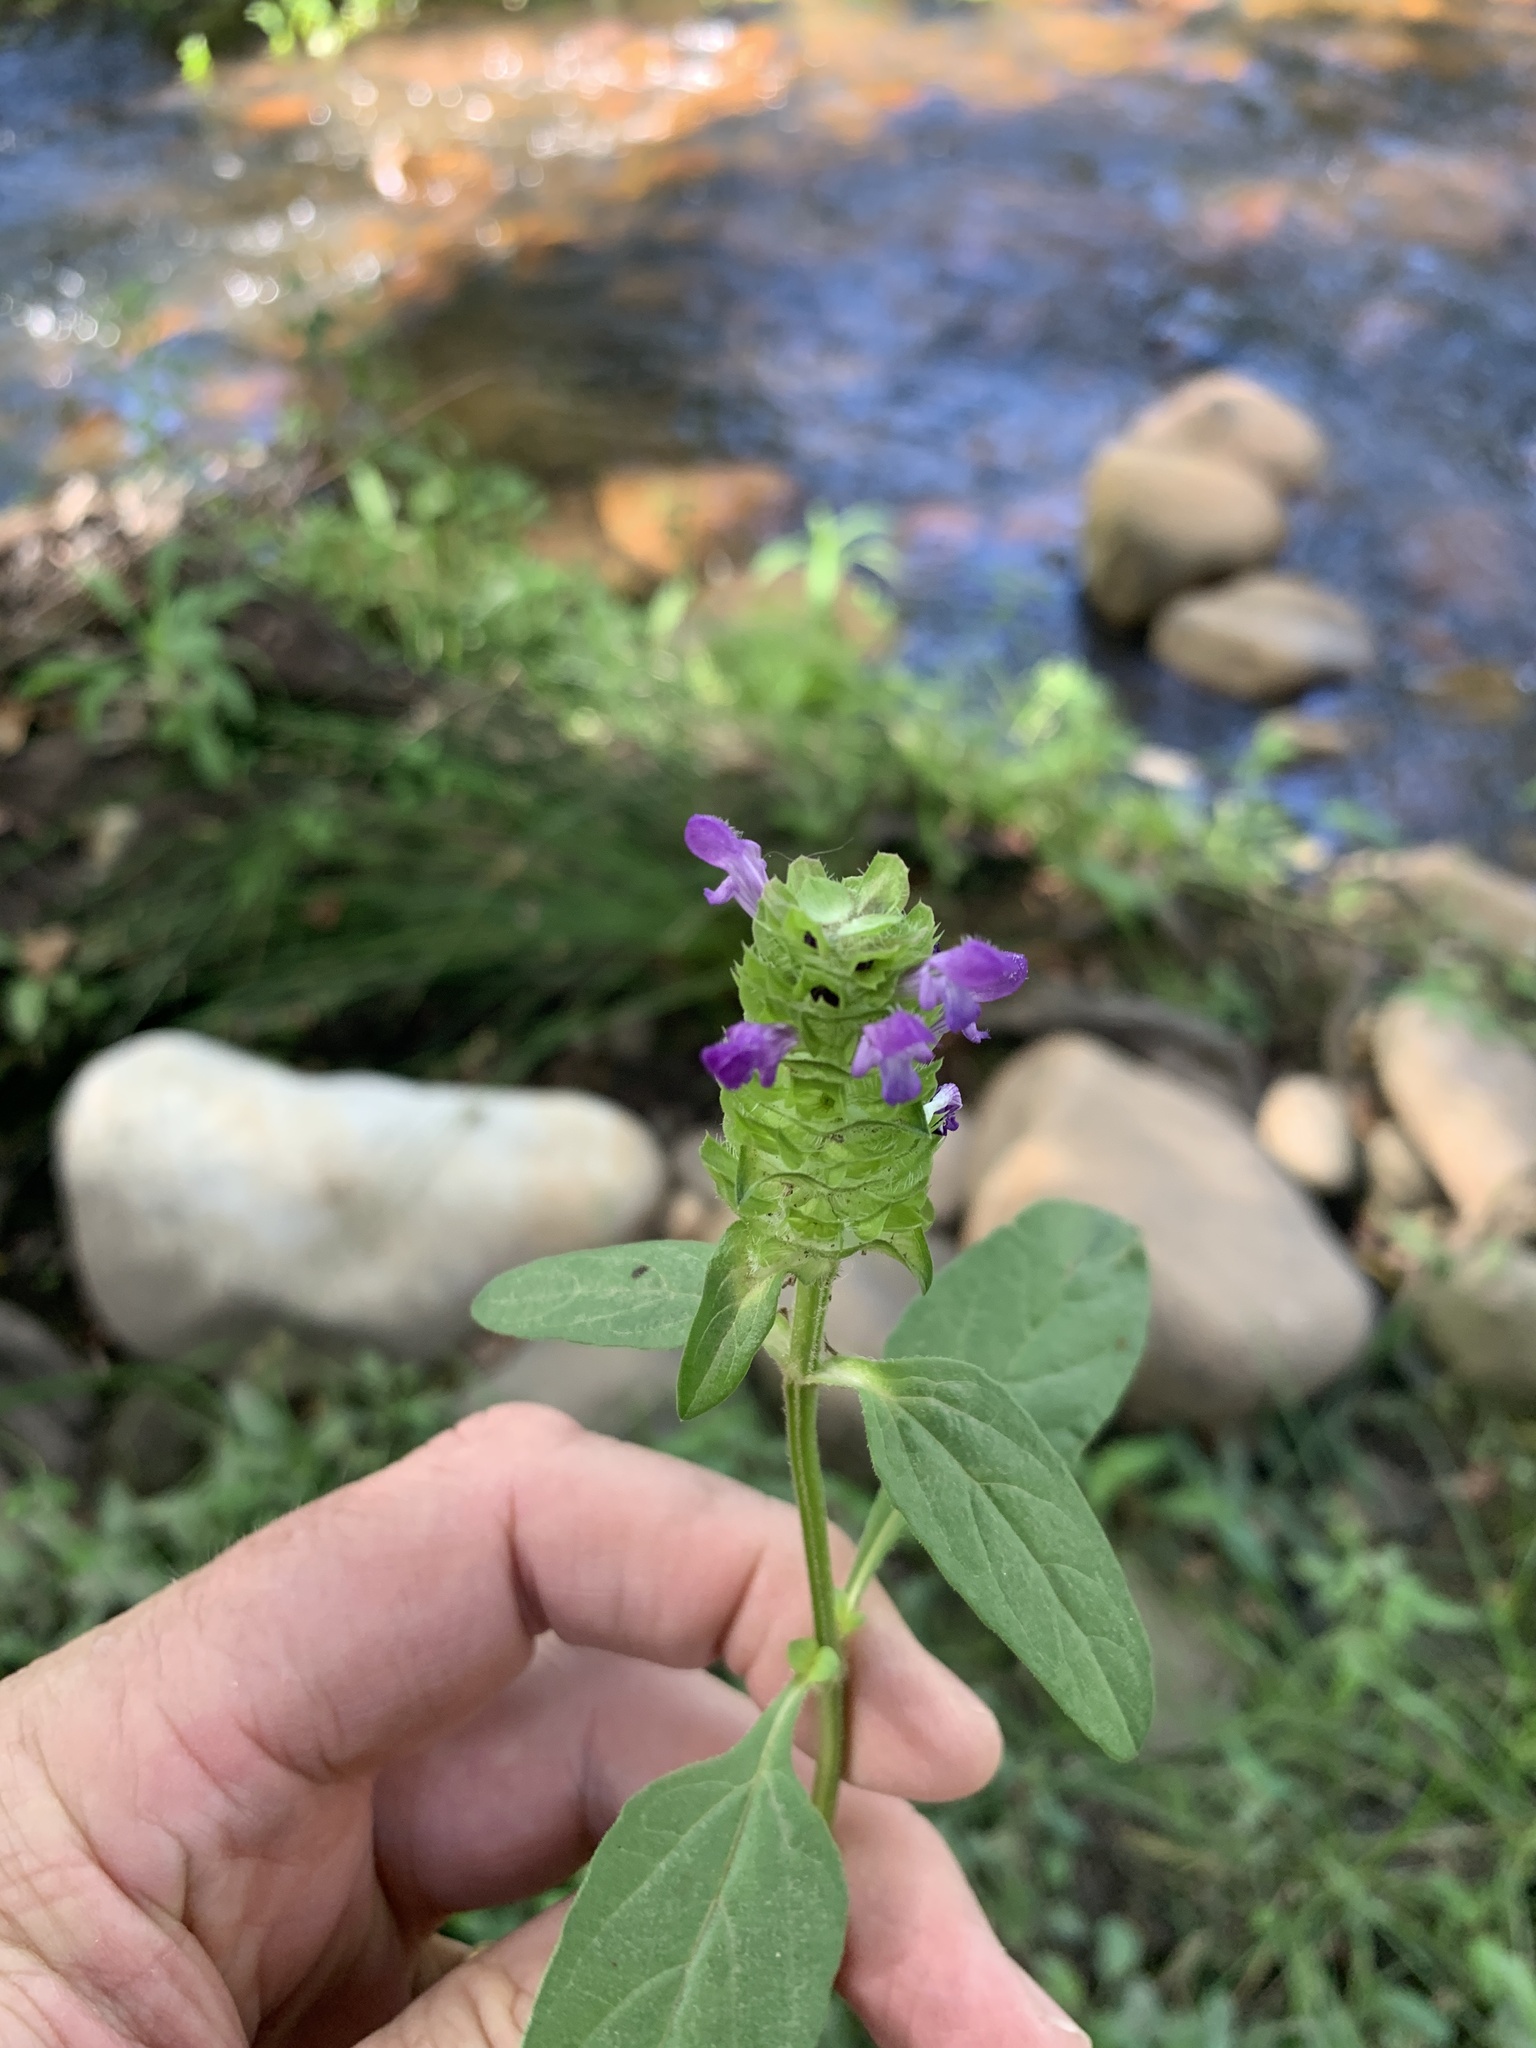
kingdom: Plantae
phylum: Tracheophyta
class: Magnoliopsida
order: Lamiales
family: Lamiaceae
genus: Prunella
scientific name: Prunella vulgaris
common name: Heal-all
